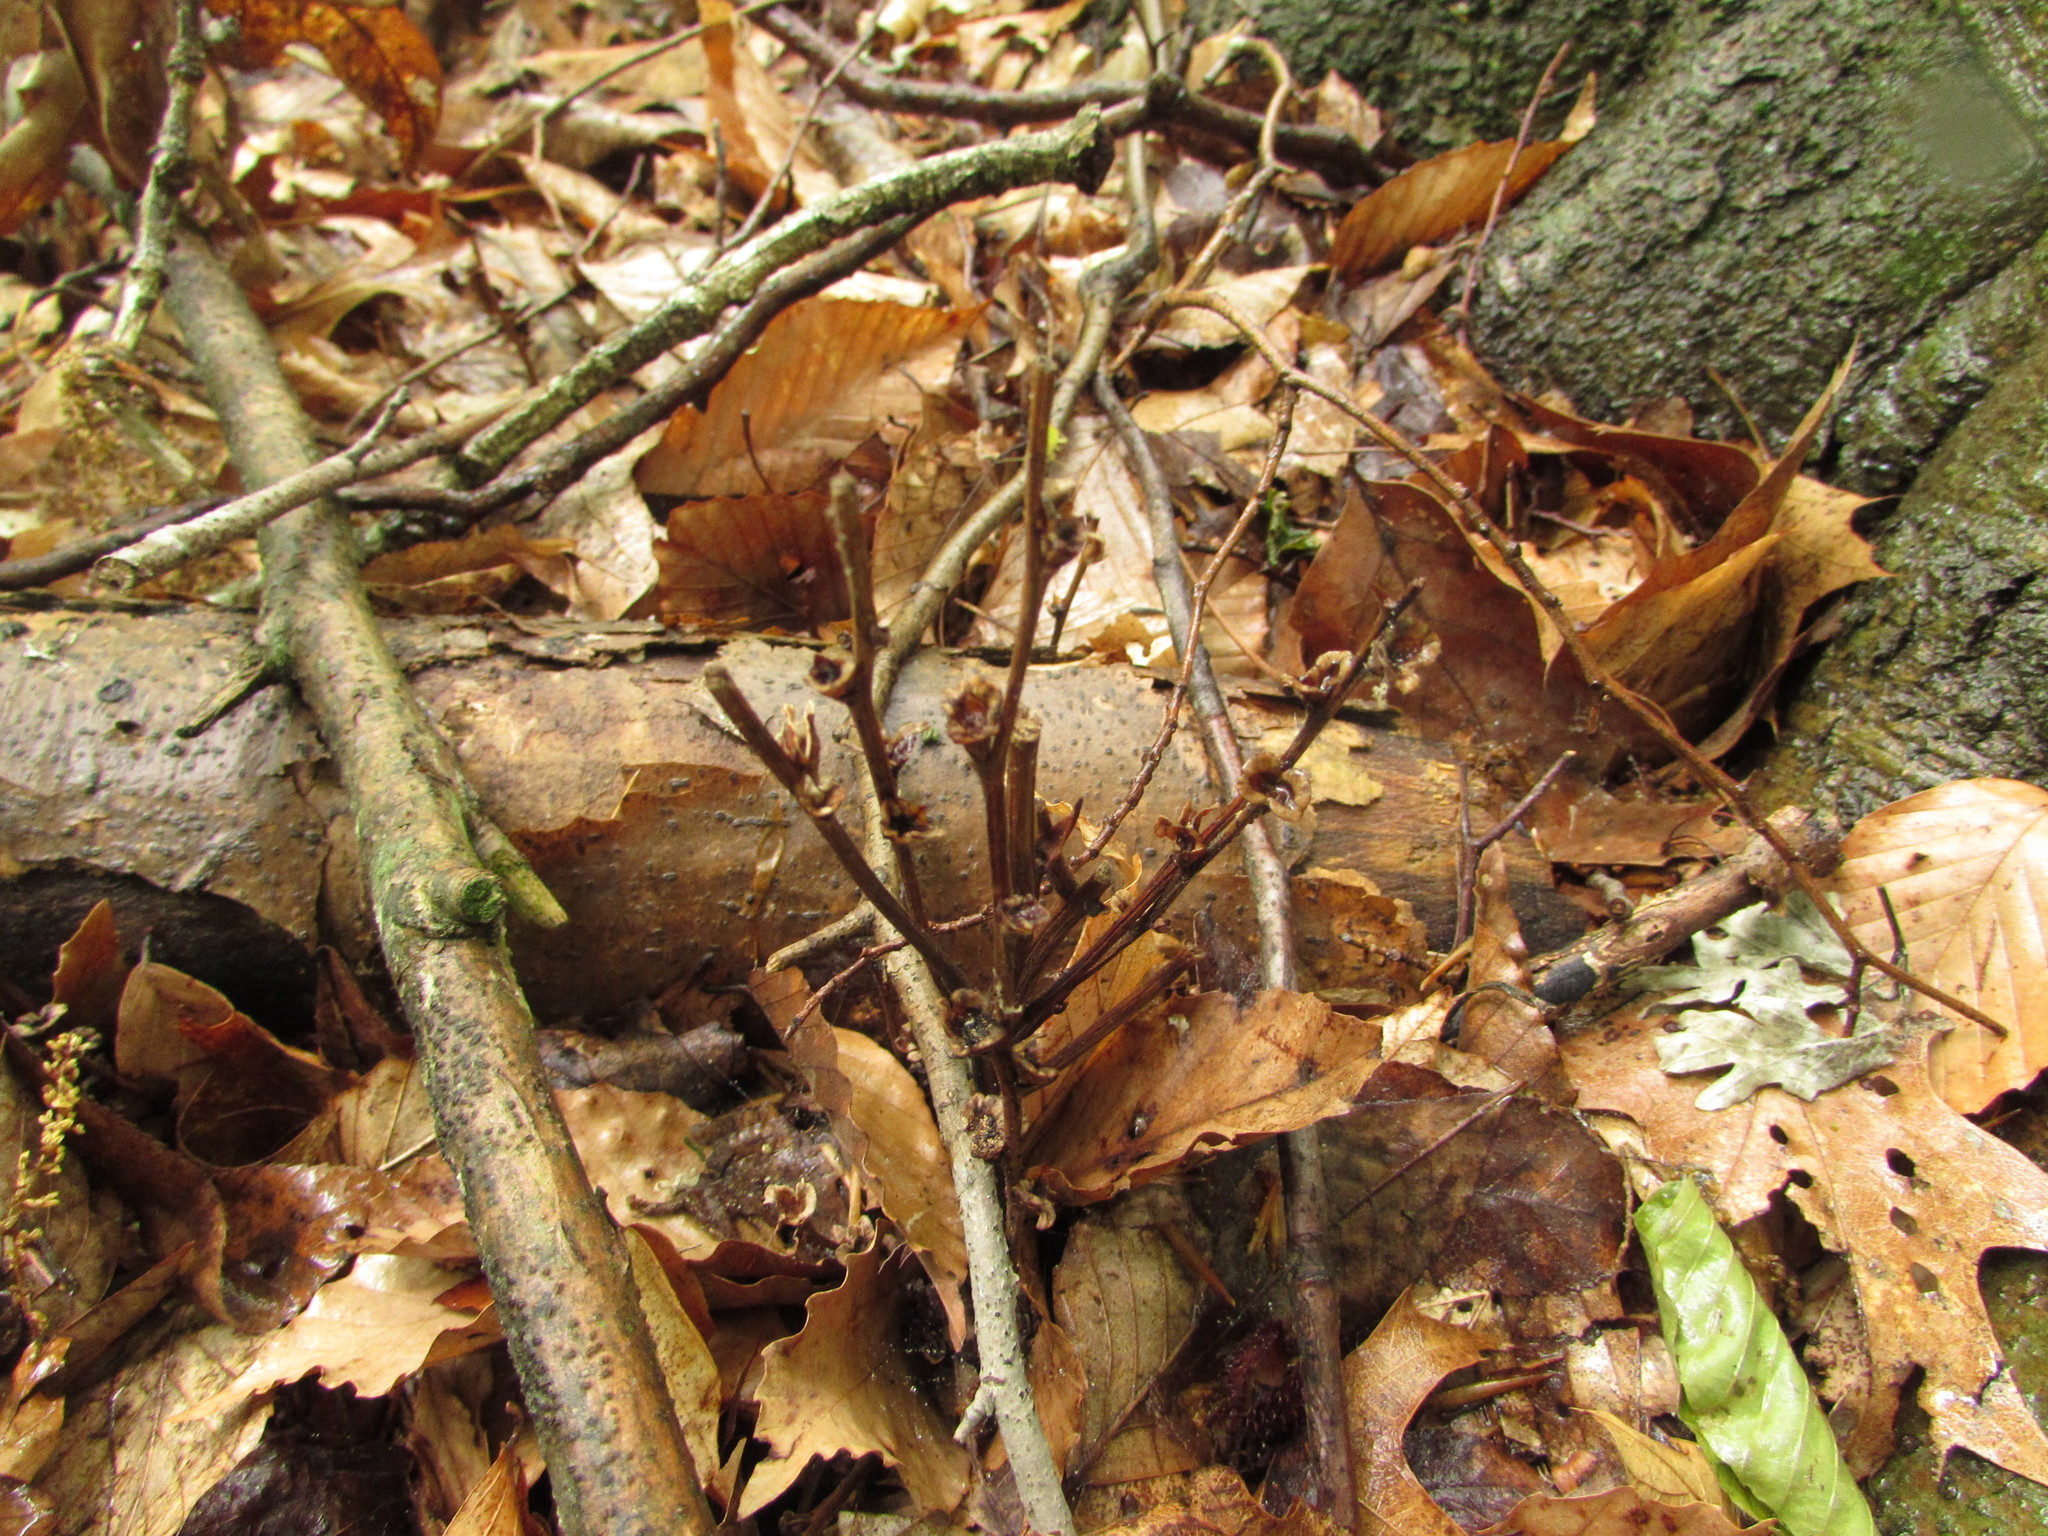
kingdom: Plantae
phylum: Tracheophyta
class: Magnoliopsida
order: Lamiales
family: Orobanchaceae
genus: Epifagus
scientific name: Epifagus virginiana
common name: Beechdrops
